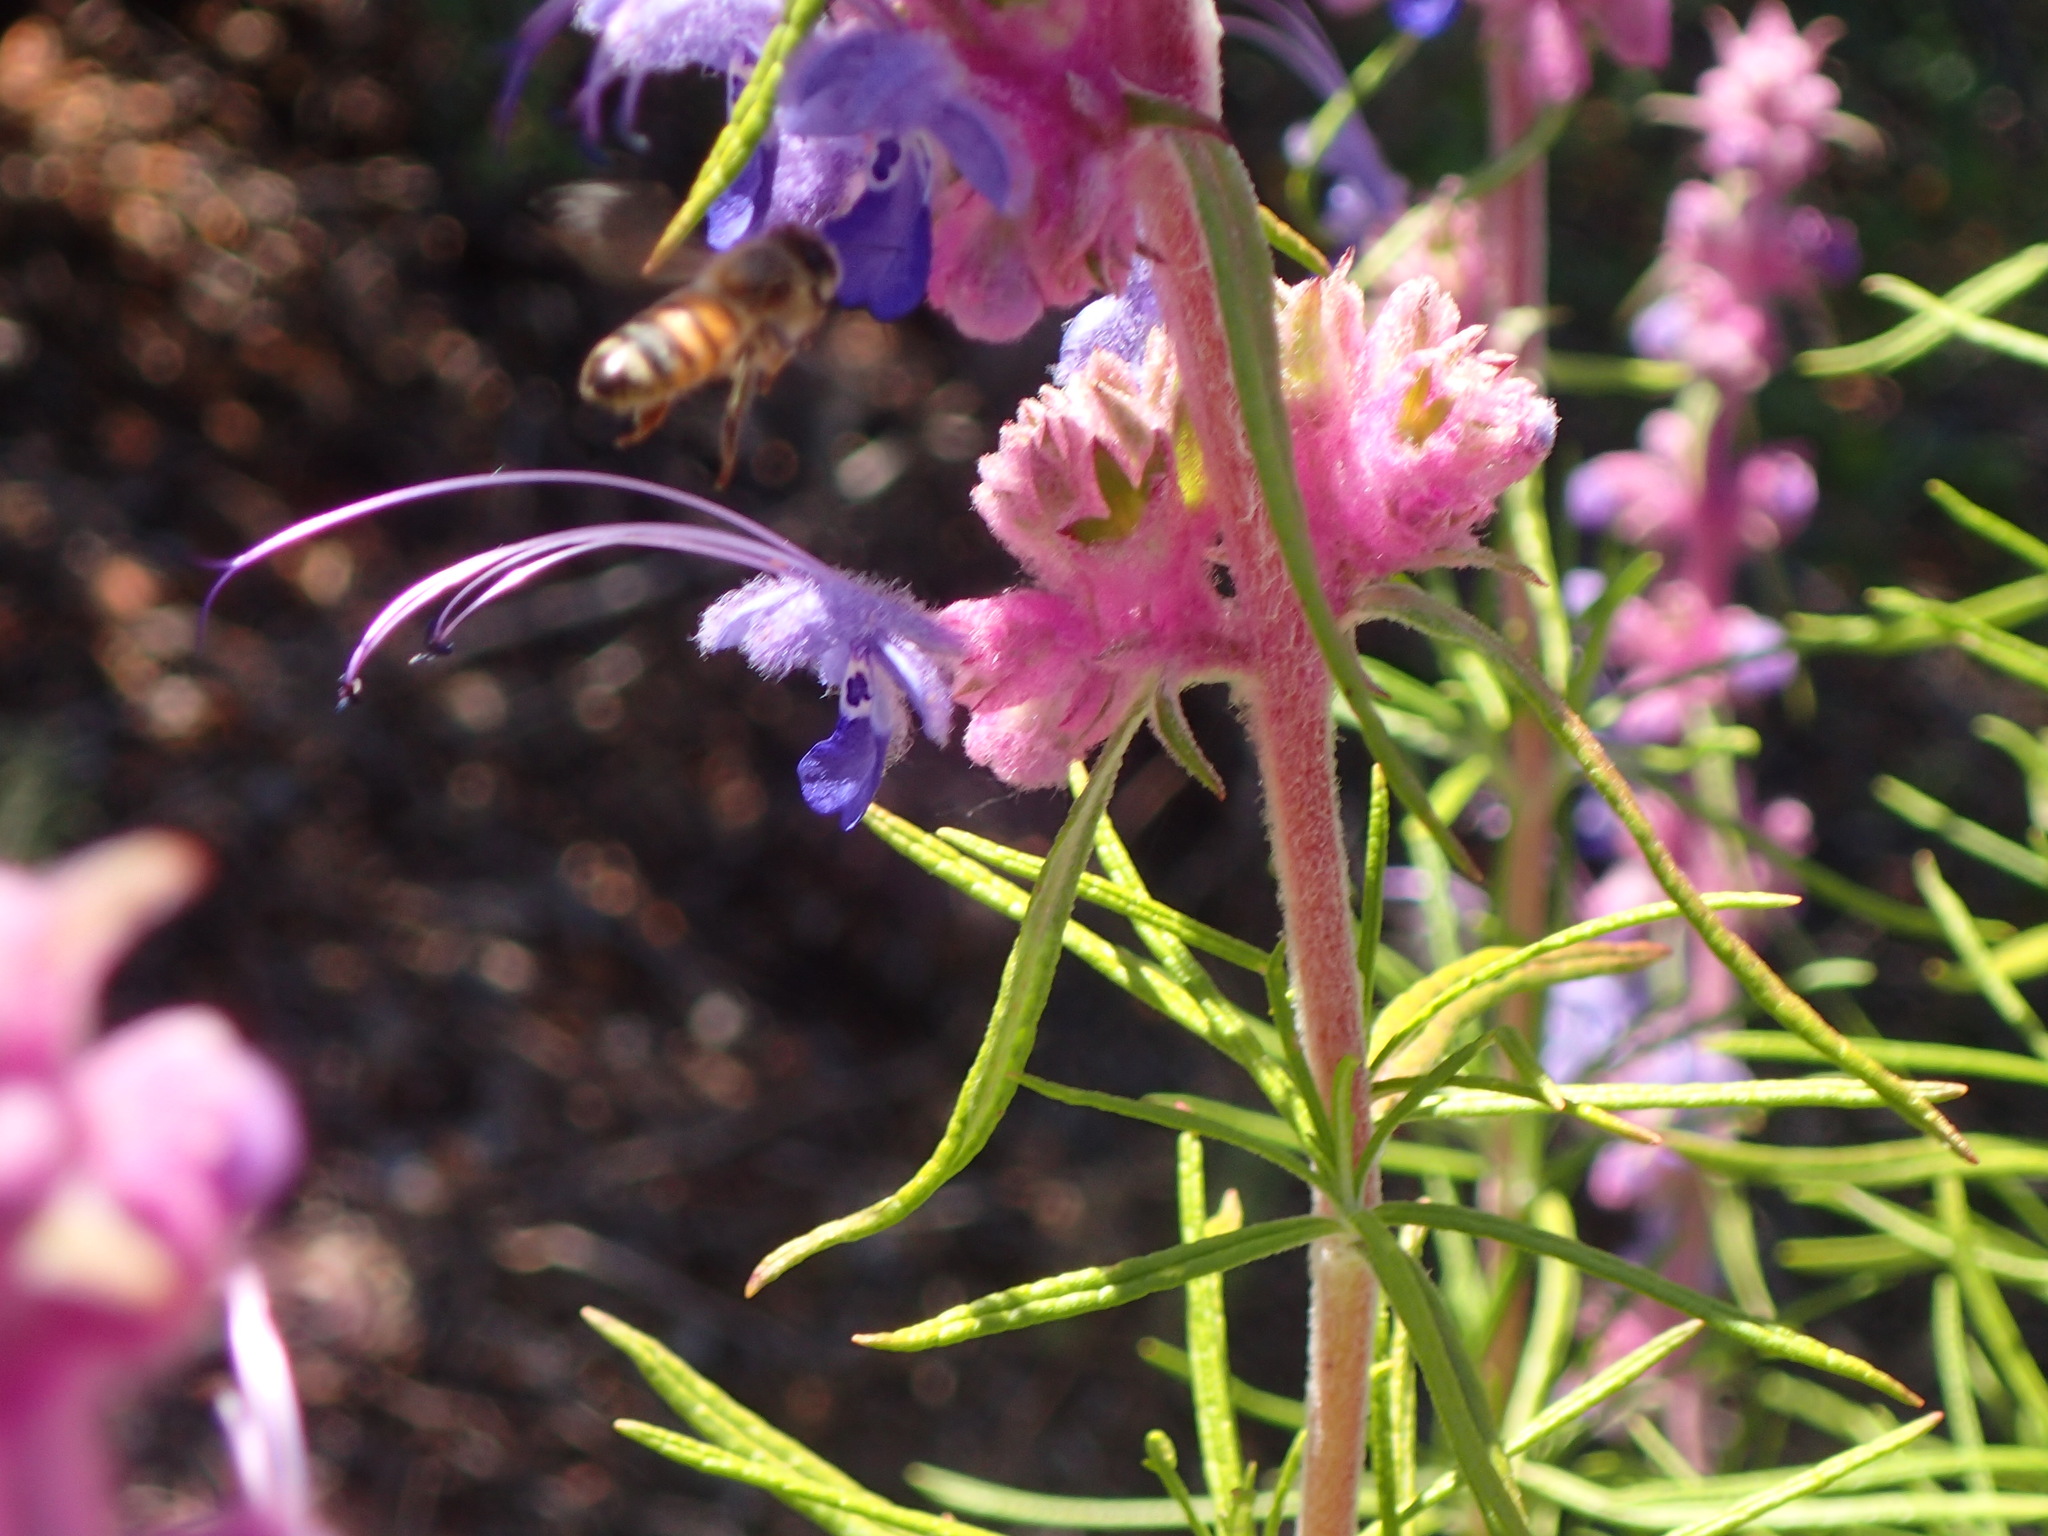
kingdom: Plantae
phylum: Tracheophyta
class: Magnoliopsida
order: Lamiales
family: Lamiaceae
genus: Trichostema
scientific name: Trichostema lanatum
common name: Woolly bluecurls
